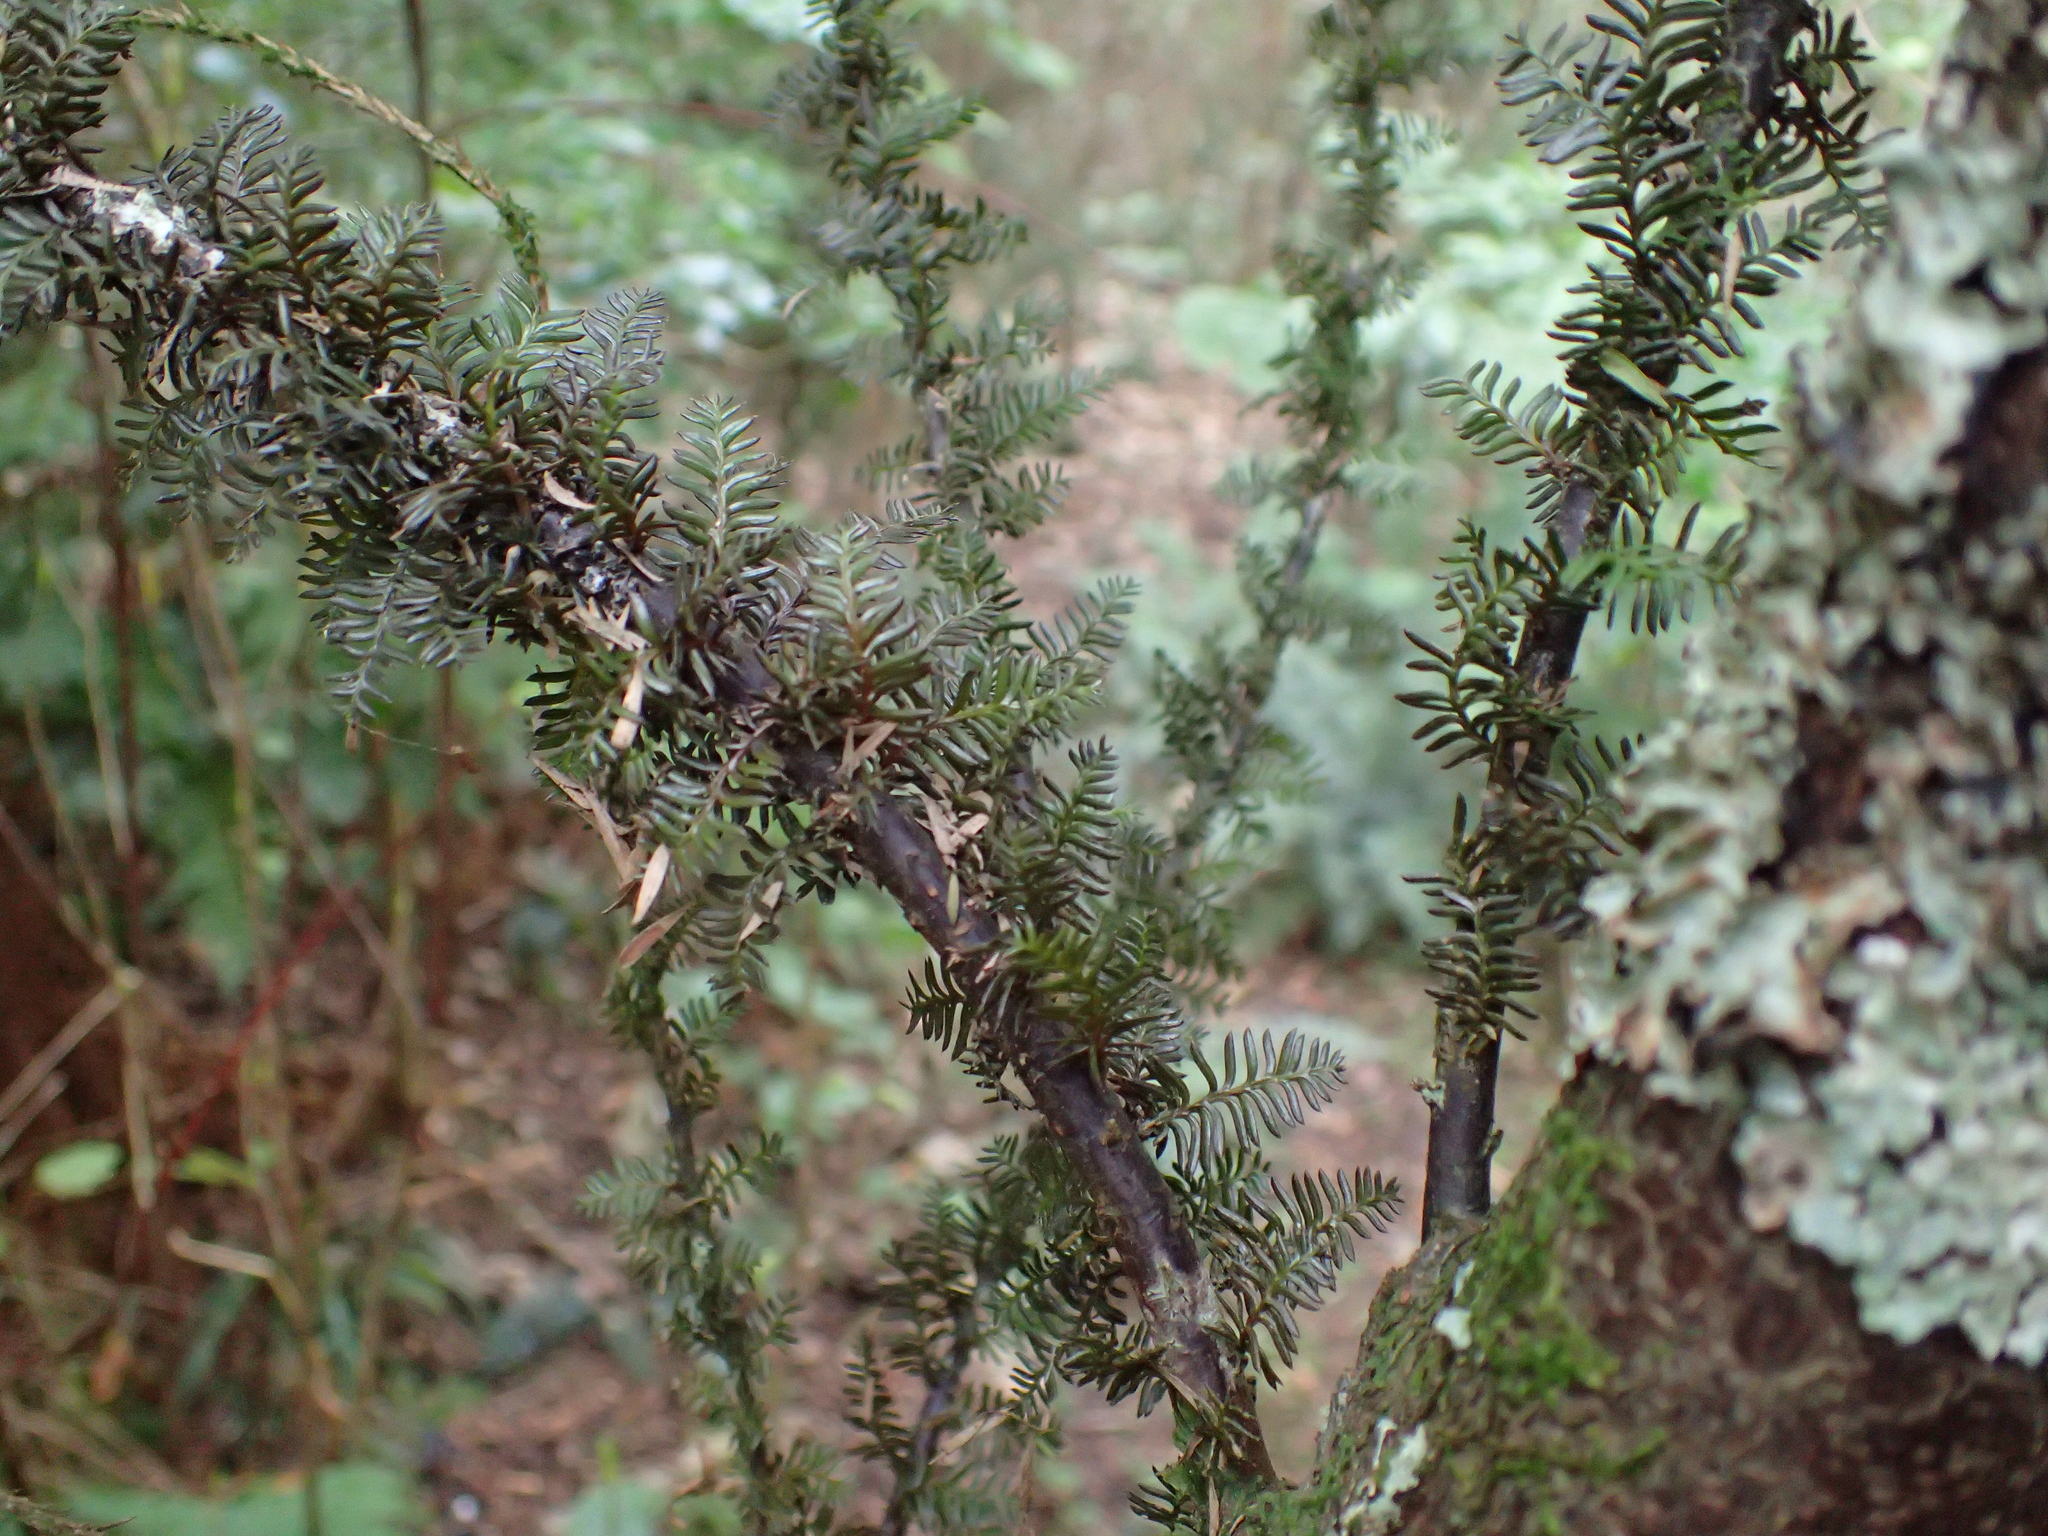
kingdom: Plantae
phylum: Tracheophyta
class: Pinopsida
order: Pinales
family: Podocarpaceae
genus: Dacrycarpus
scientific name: Dacrycarpus dacrydioides
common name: White pine
